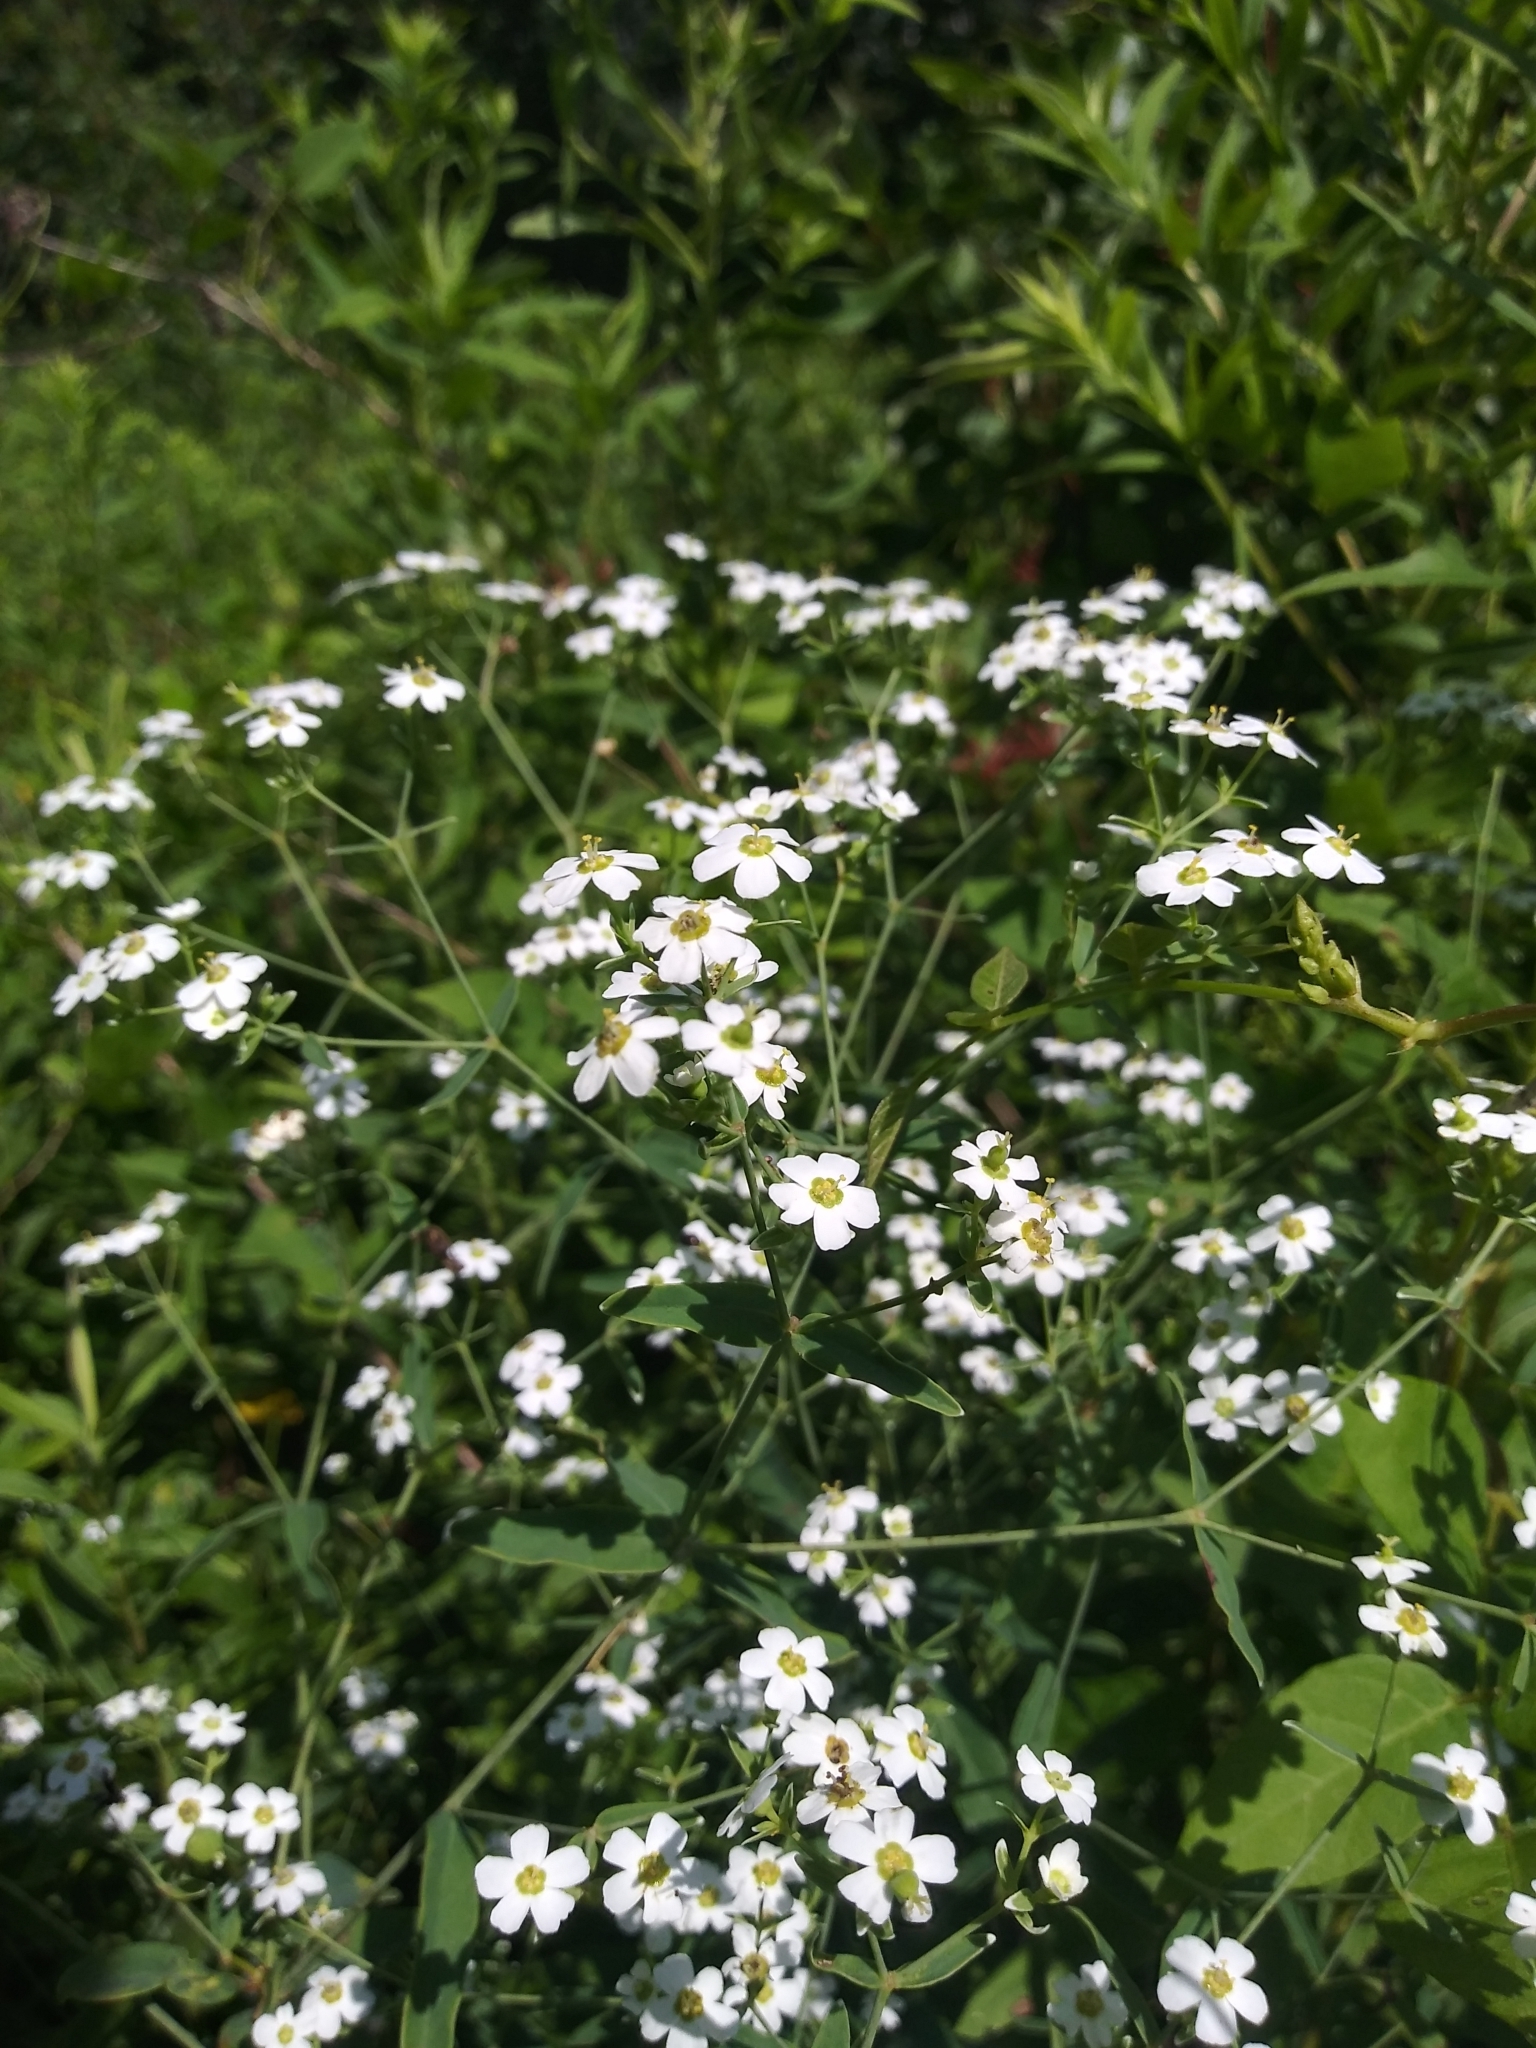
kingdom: Plantae
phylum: Tracheophyta
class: Magnoliopsida
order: Malpighiales
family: Euphorbiaceae
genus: Euphorbia
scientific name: Euphorbia corollata
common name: Flowering spurge
